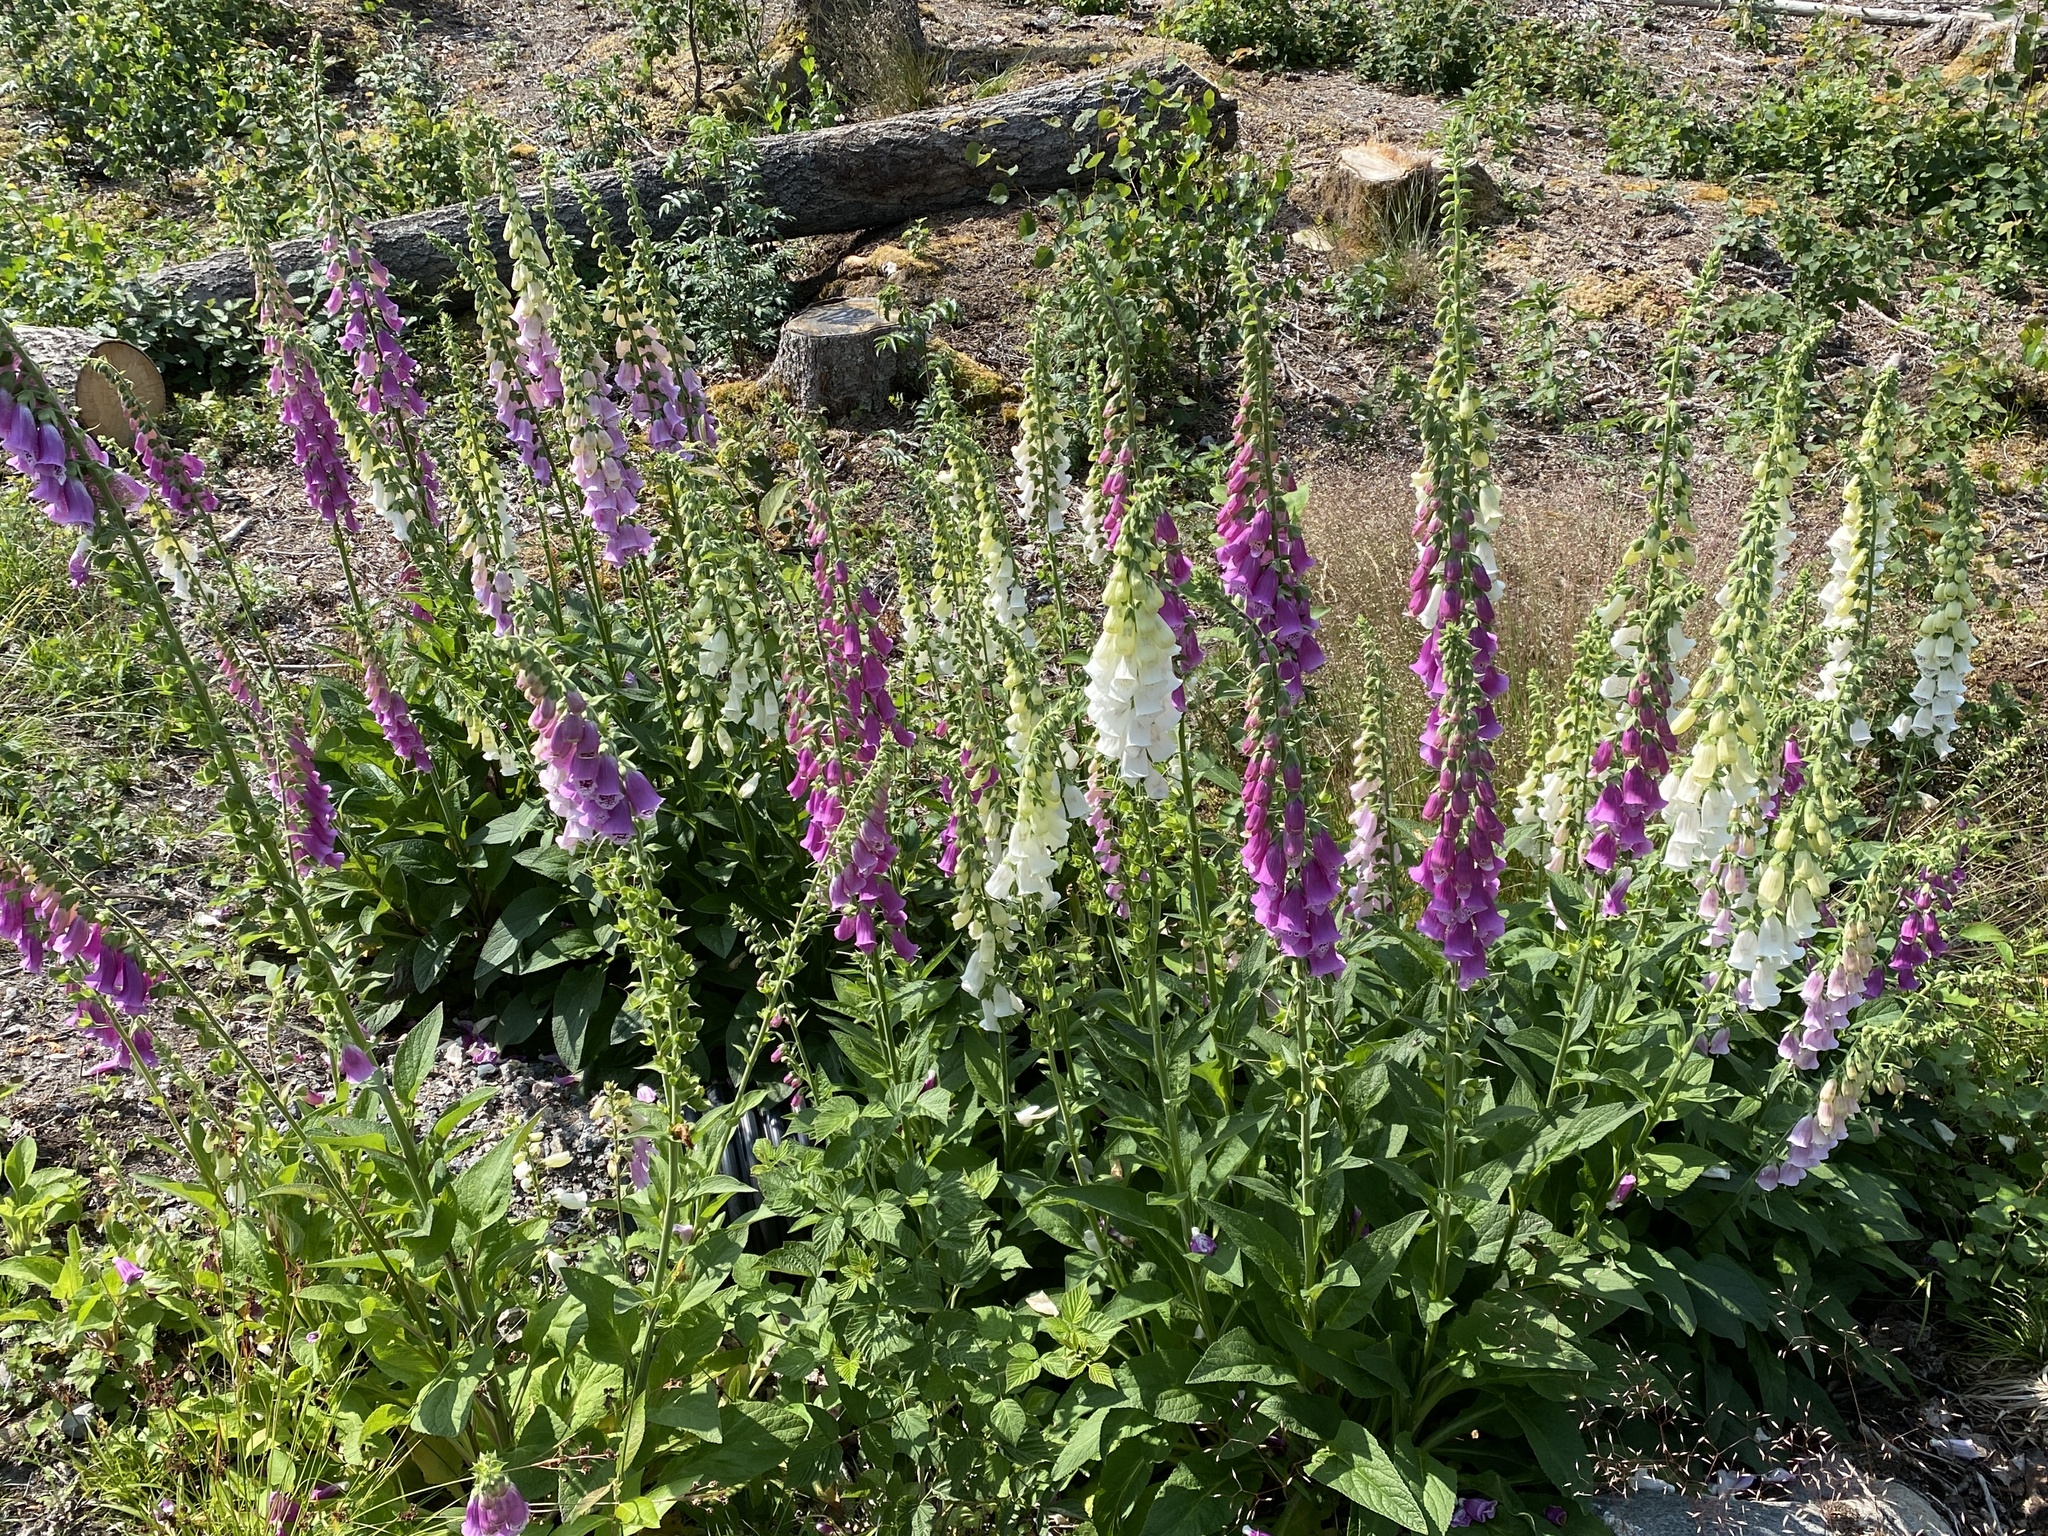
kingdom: Plantae
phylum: Tracheophyta
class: Magnoliopsida
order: Lamiales
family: Plantaginaceae
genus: Digitalis
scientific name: Digitalis purpurea
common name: Foxglove
